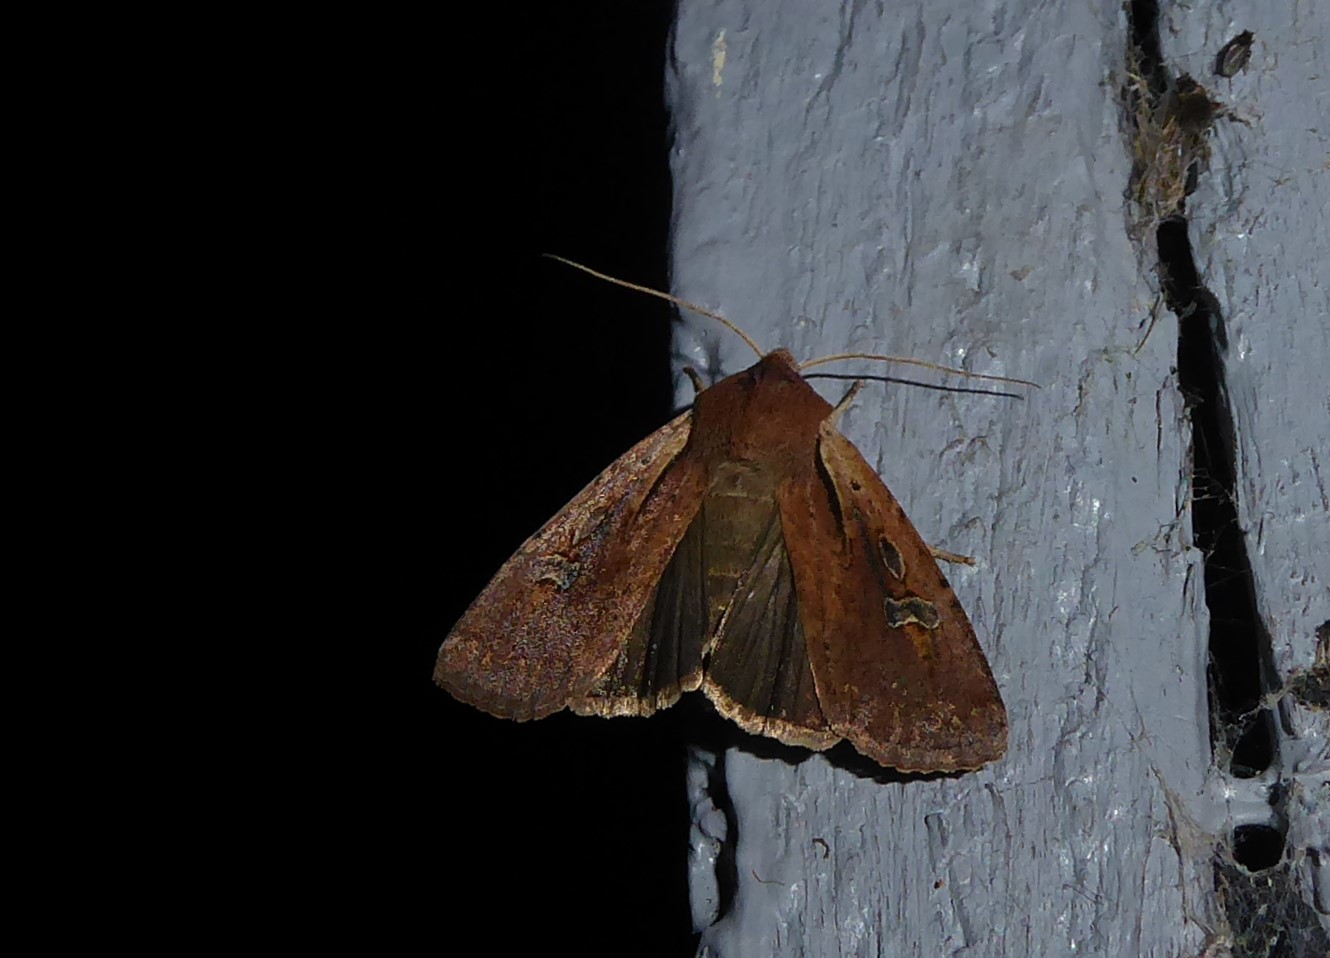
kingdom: Animalia
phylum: Arthropoda
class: Insecta
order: Lepidoptera
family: Noctuidae
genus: Ichneutica
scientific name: Ichneutica atristriga
